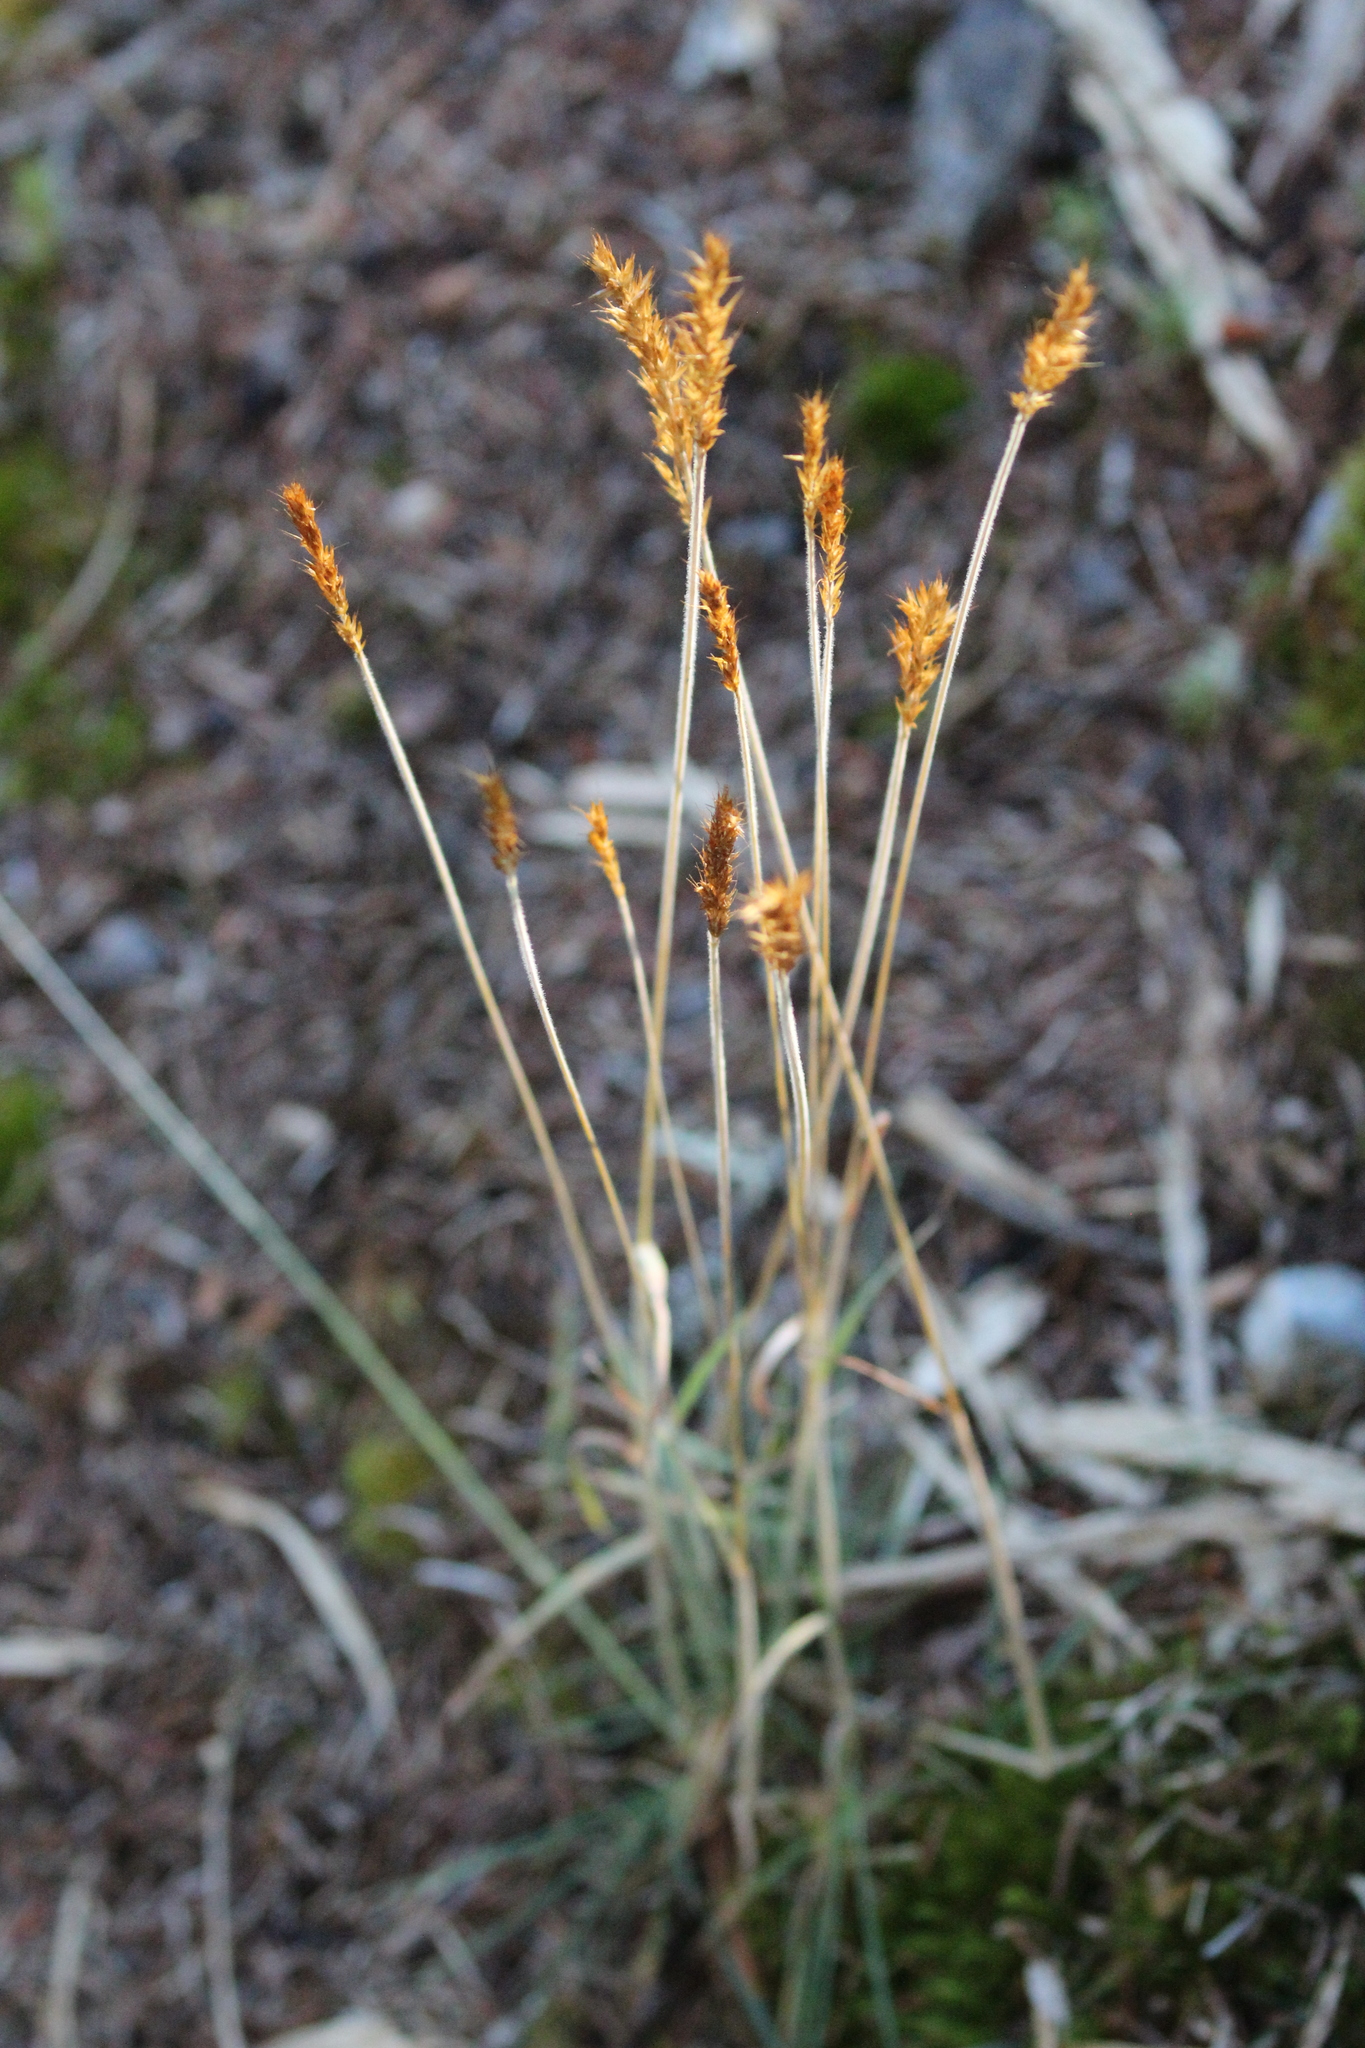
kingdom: Plantae
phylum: Tracheophyta
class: Liliopsida
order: Poales
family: Poaceae
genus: Koeleria
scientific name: Koeleria spicata
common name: Mountain trisetum
